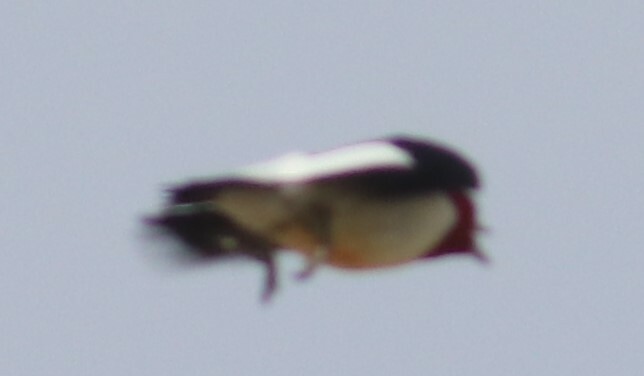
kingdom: Animalia
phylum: Chordata
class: Aves
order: Piciformes
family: Picidae
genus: Melanerpes
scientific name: Melanerpes erythrocephalus
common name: Red-headed woodpecker
